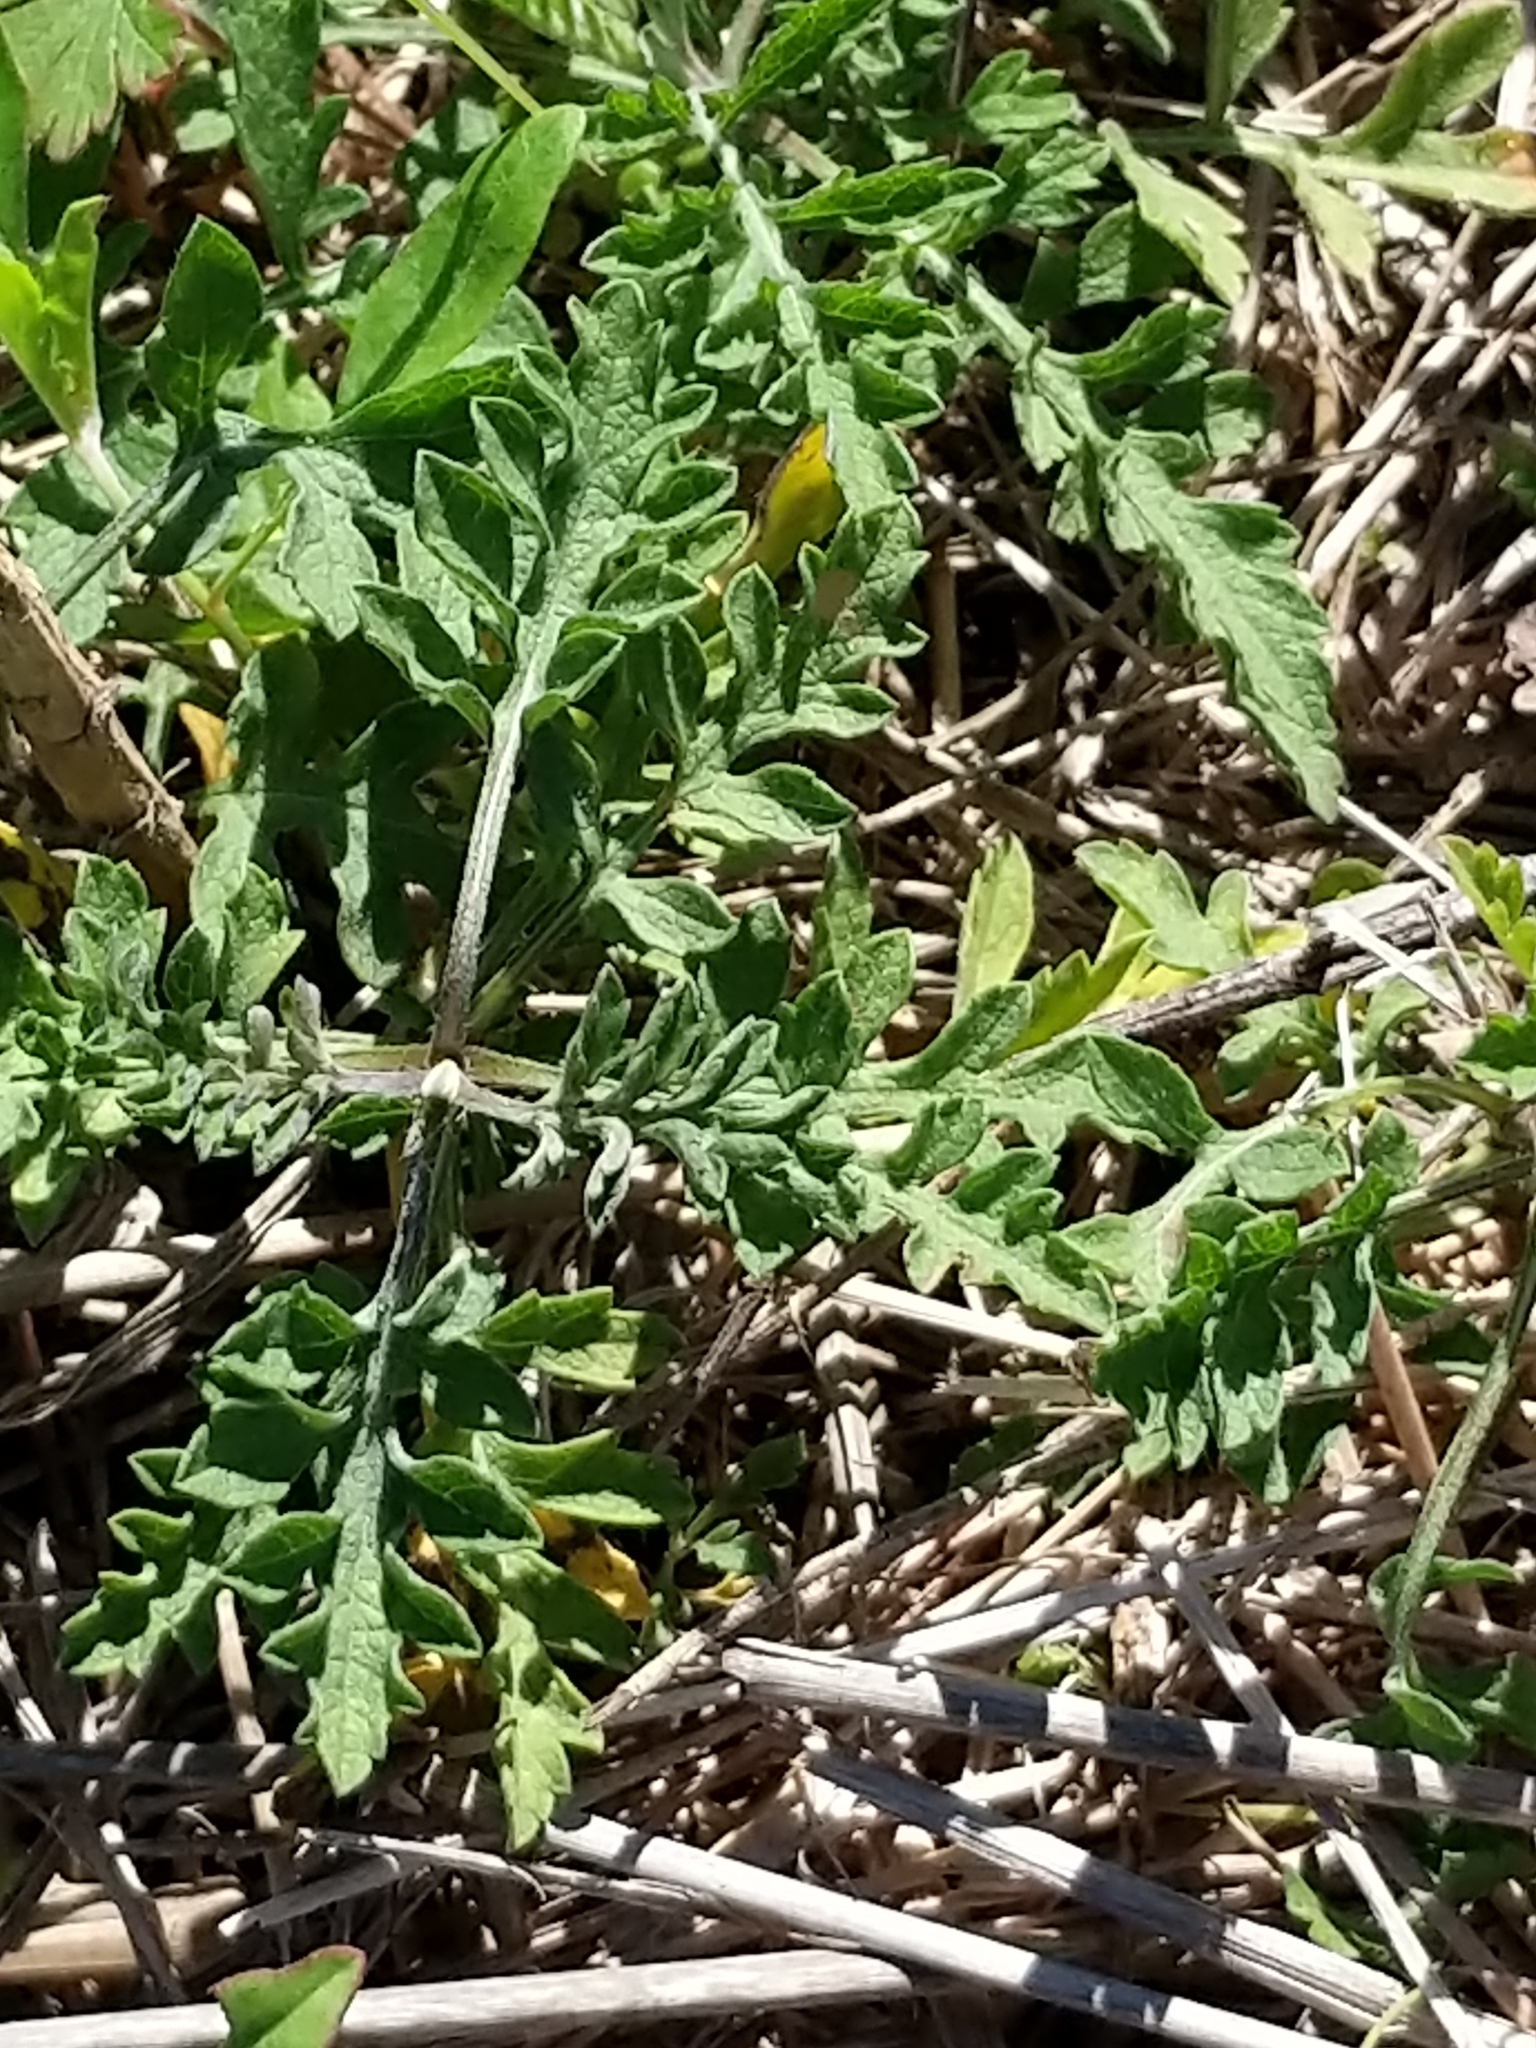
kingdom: Plantae
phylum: Tracheophyta
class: Magnoliopsida
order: Asterales
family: Asteraceae
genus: Ambrosia
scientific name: Ambrosia psilostachya
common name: Perennial ragweed
